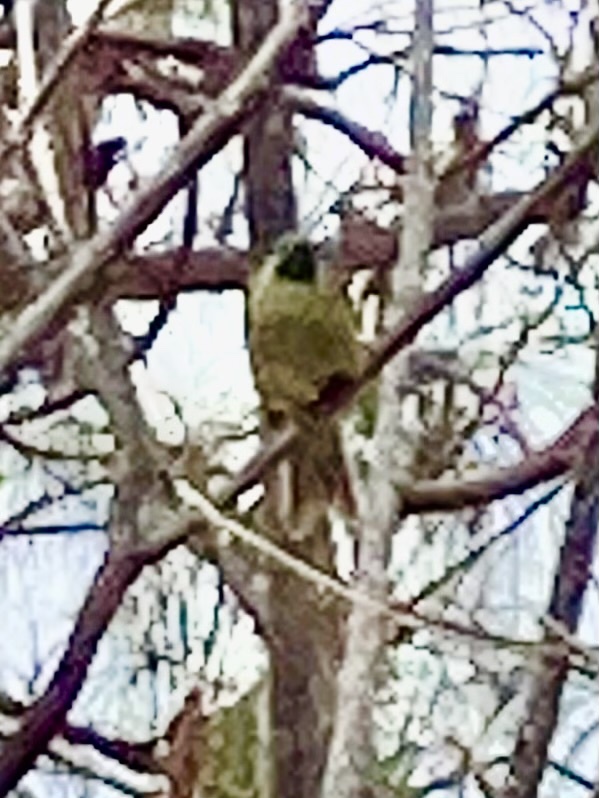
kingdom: Animalia
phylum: Chordata
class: Aves
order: Passeriformes
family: Meliphagidae
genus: Foulehaio
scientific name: Foulehaio procerior
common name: Kikau
